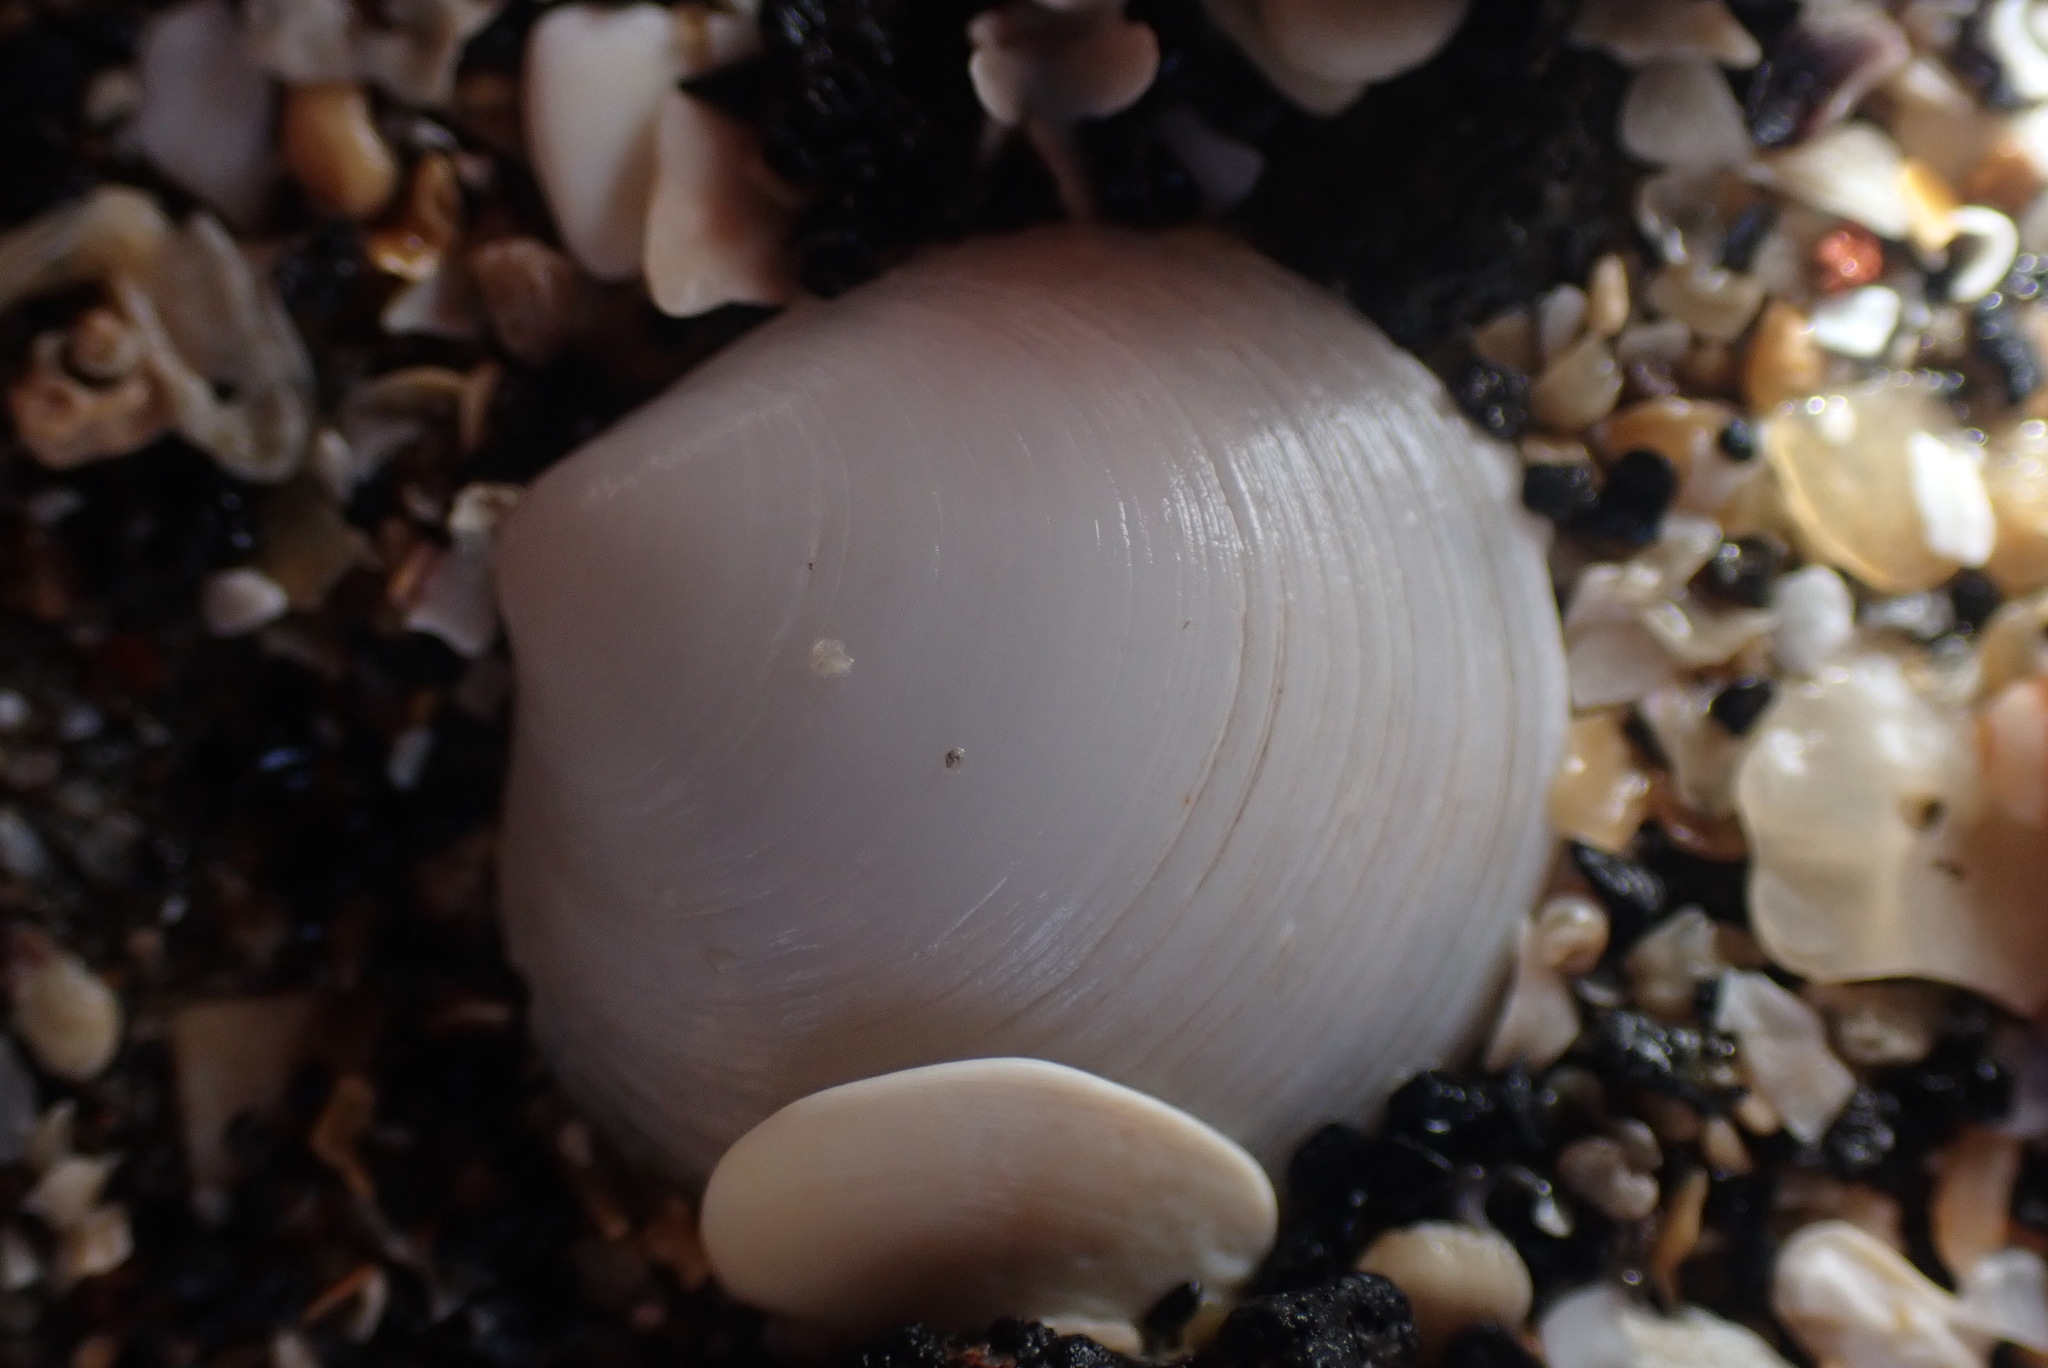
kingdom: Animalia
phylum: Mollusca
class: Bivalvia
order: Venerida
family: Ungulinidae
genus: Zemysia
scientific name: Zemysia zelandica
